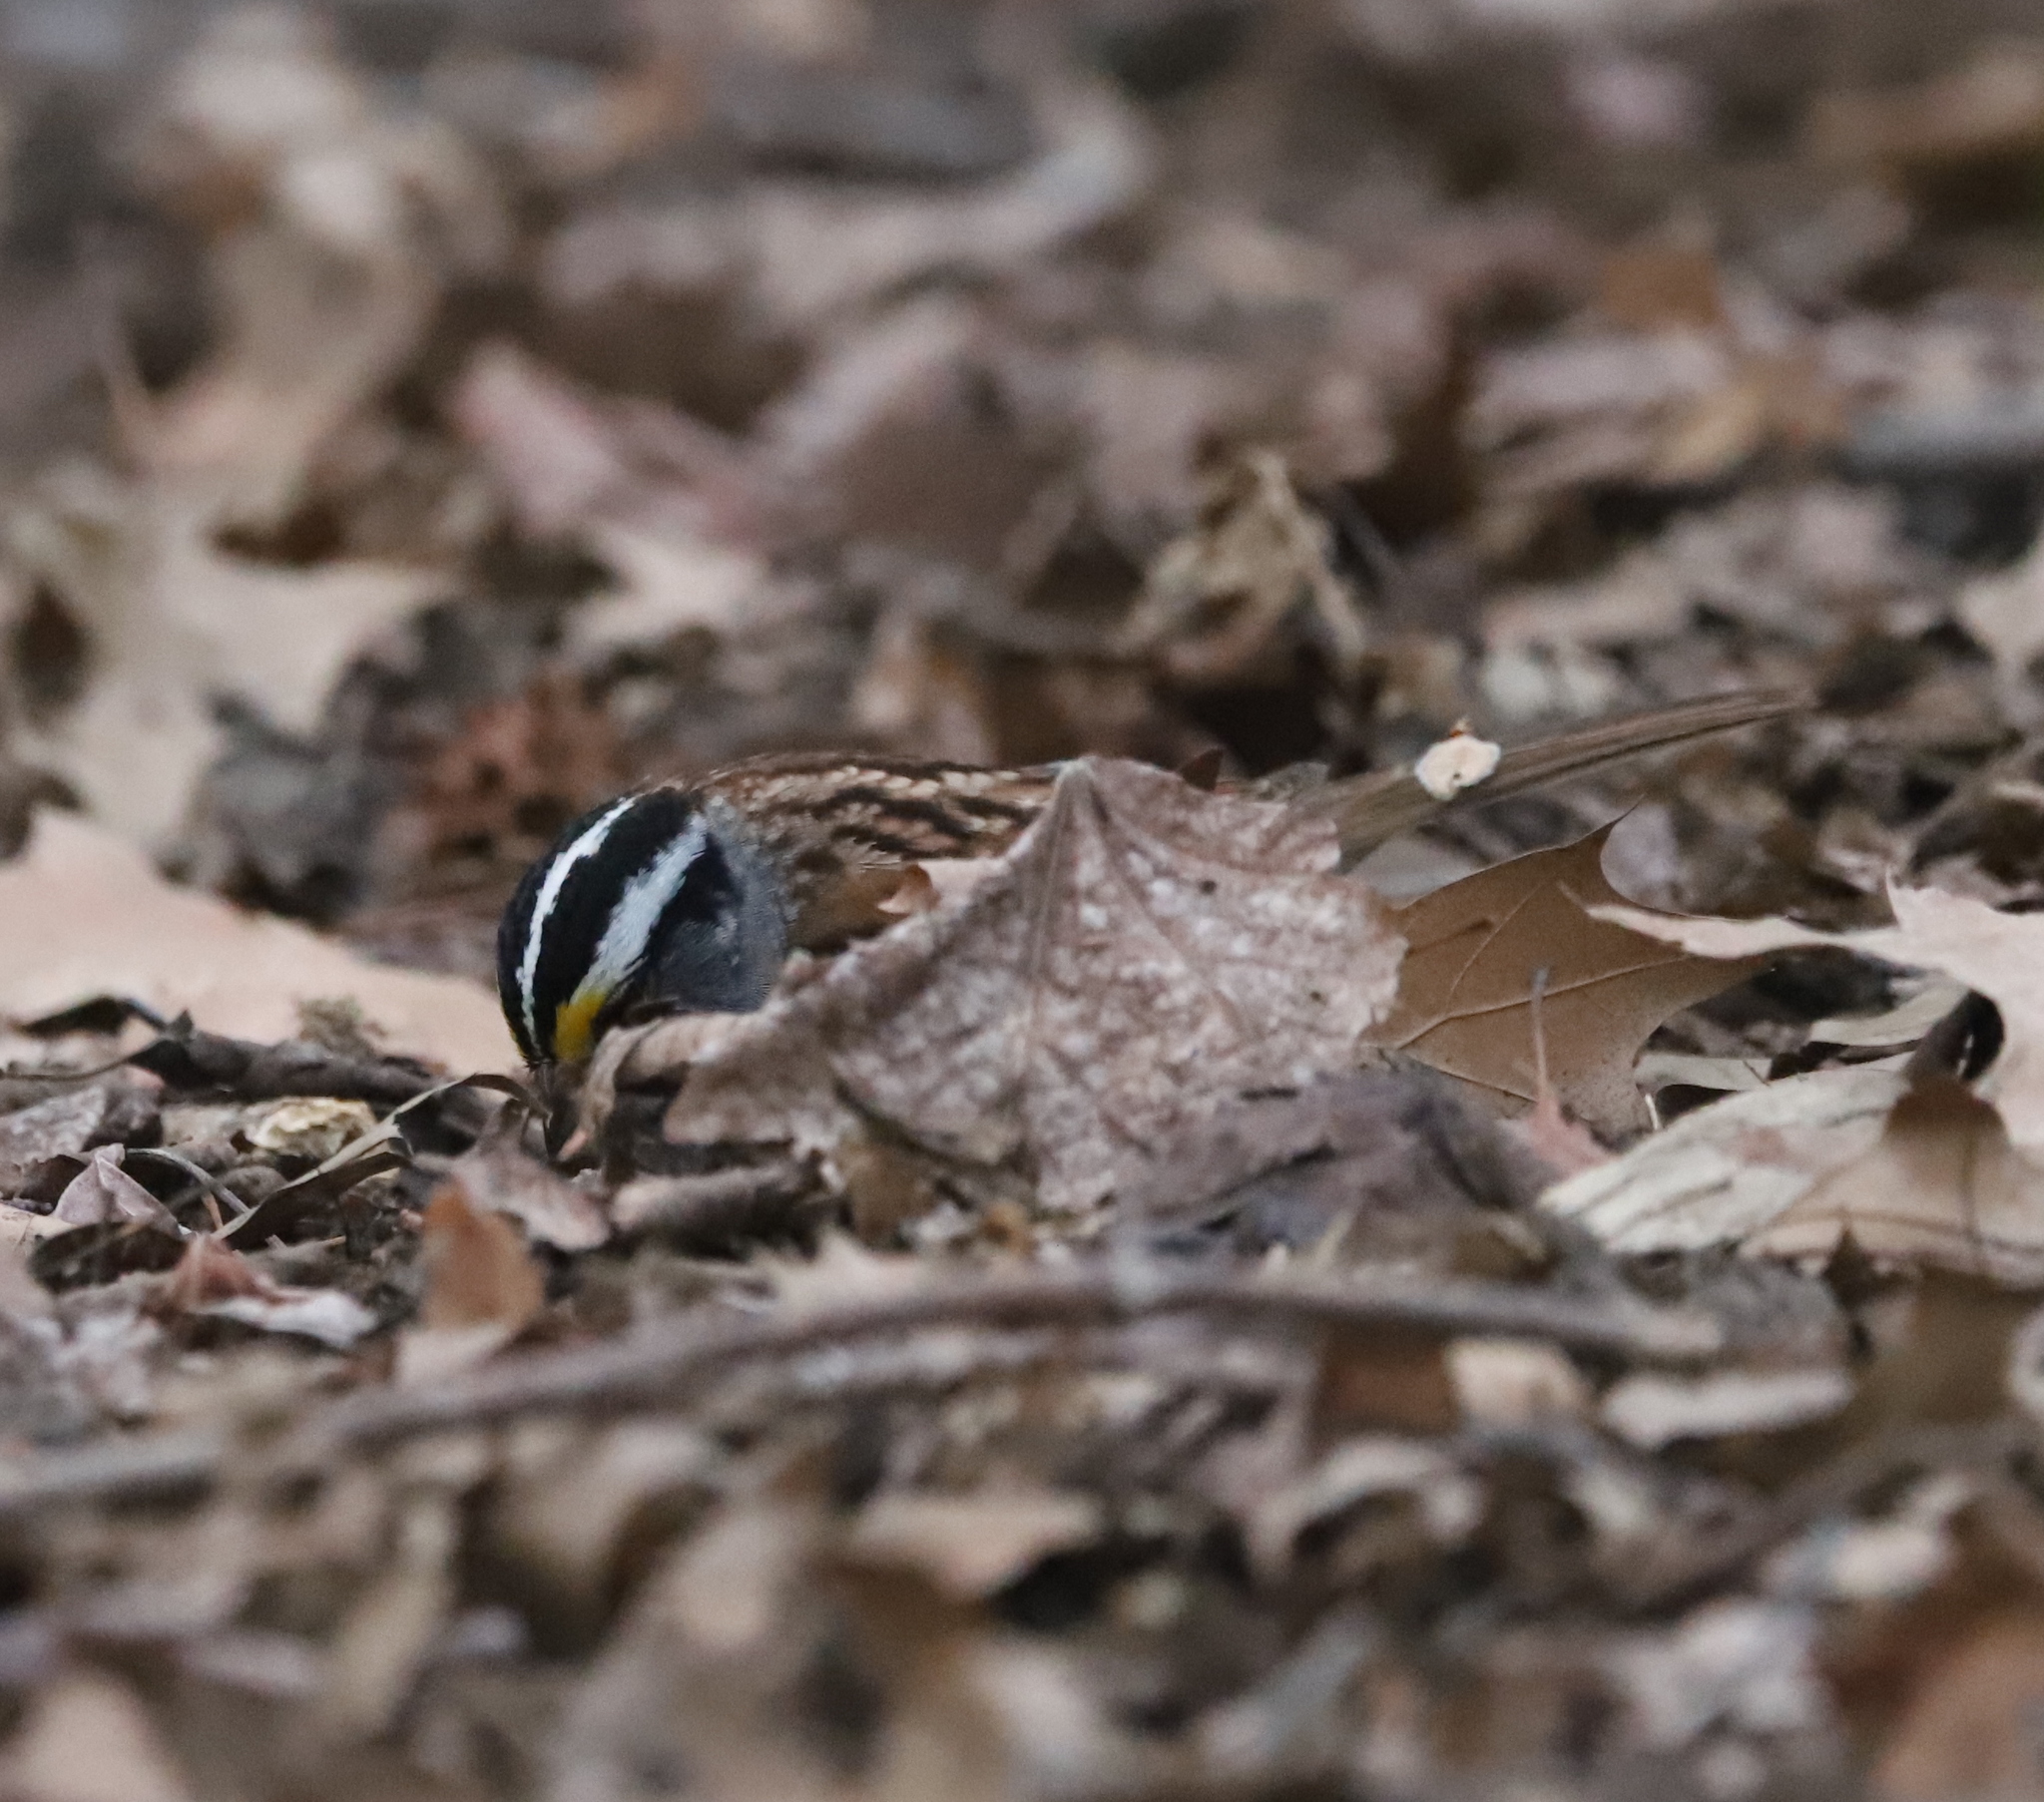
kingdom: Animalia
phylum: Chordata
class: Aves
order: Passeriformes
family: Passerellidae
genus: Zonotrichia
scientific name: Zonotrichia albicollis
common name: White-throated sparrow
